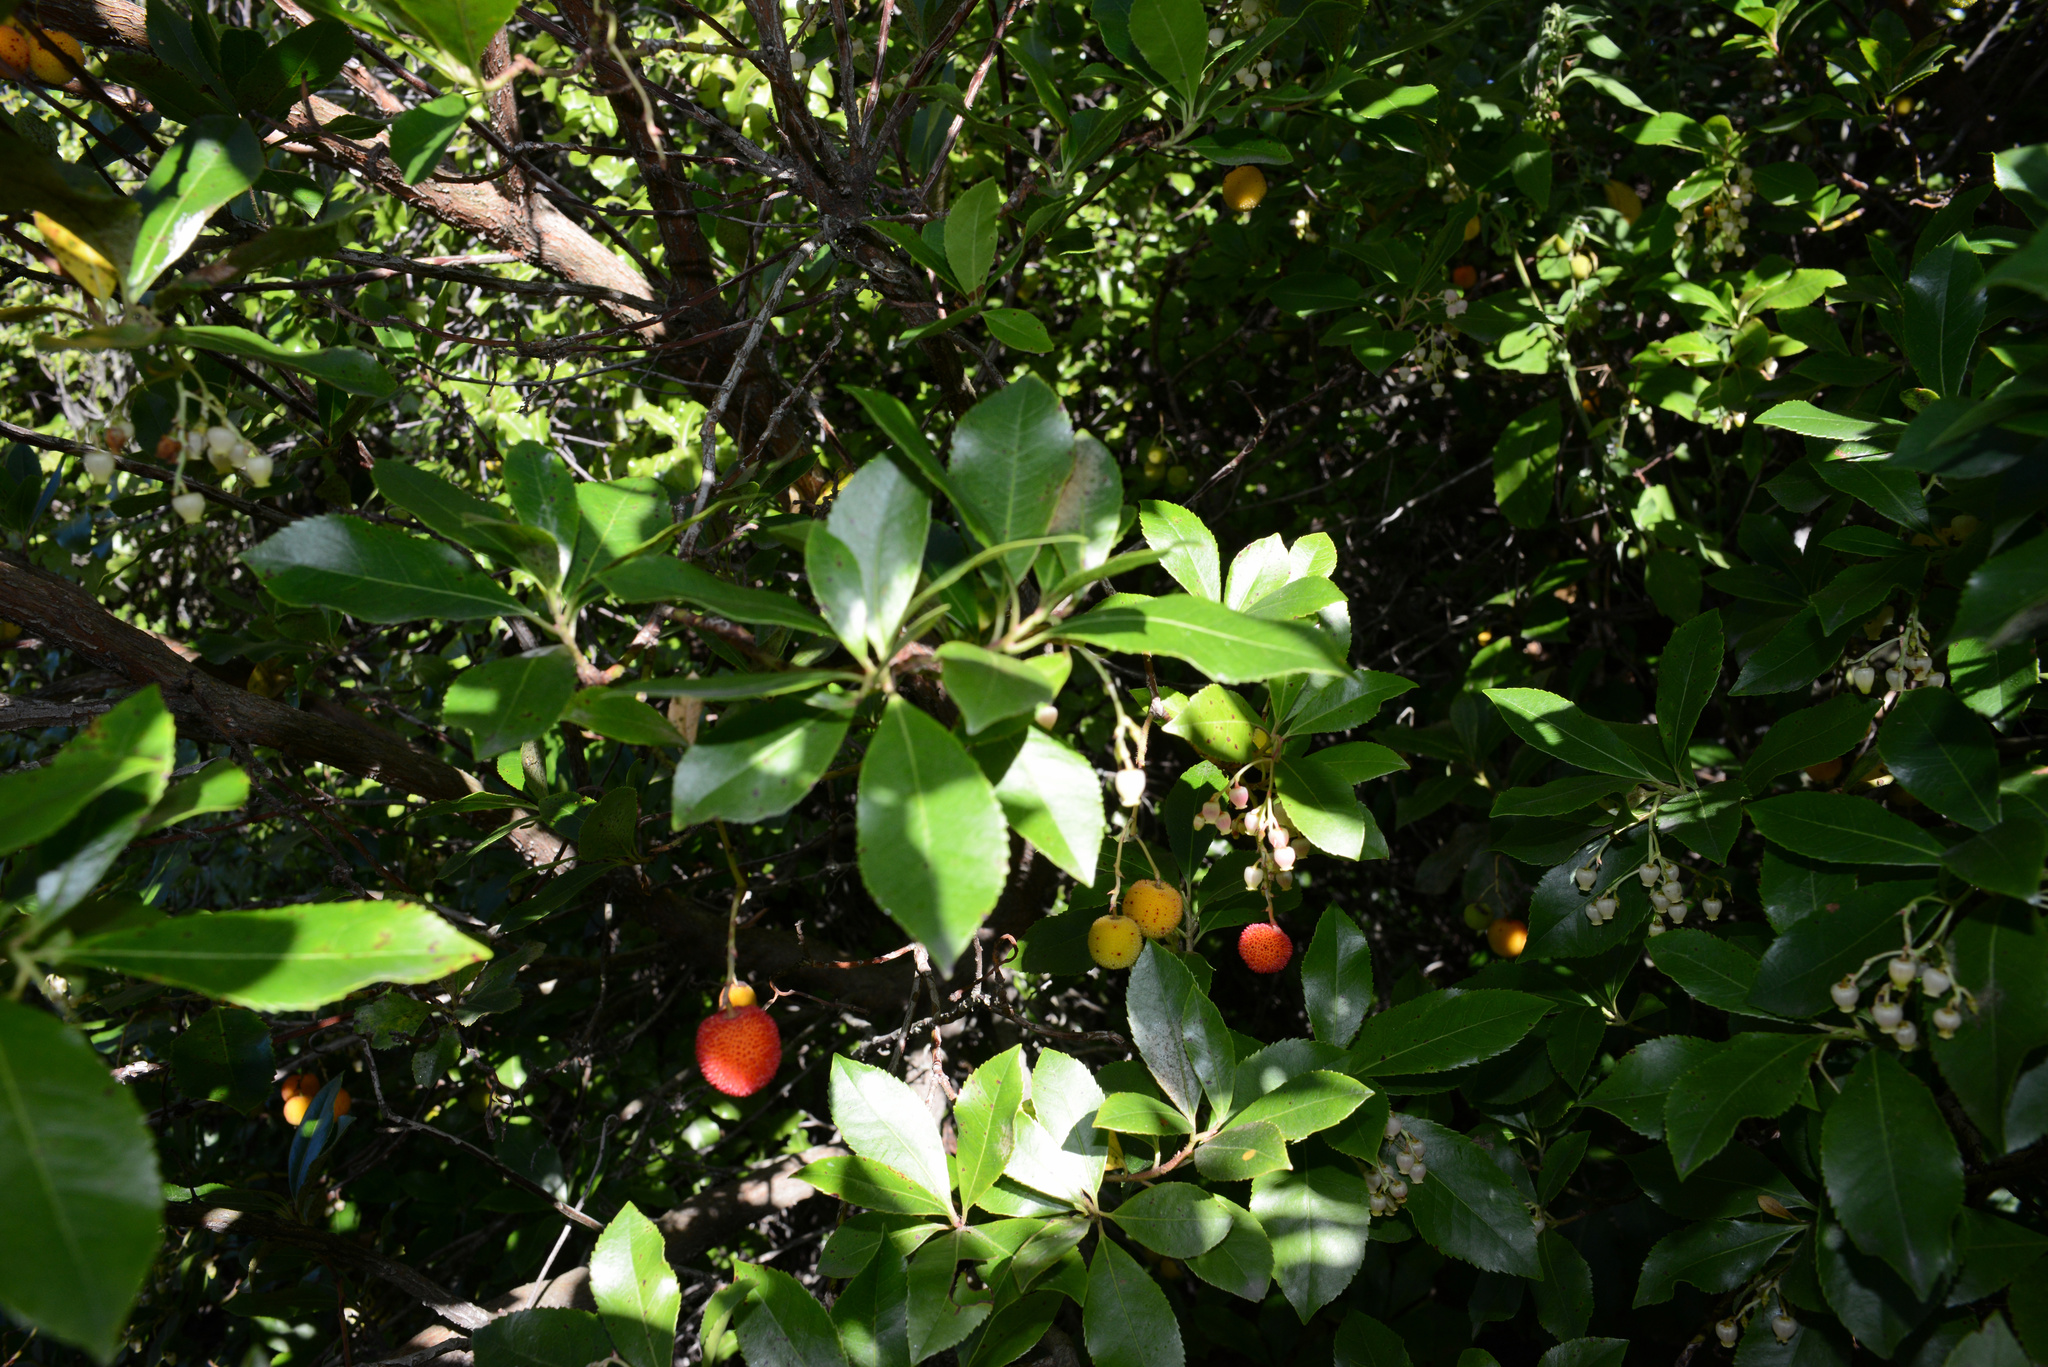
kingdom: Plantae
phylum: Tracheophyta
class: Magnoliopsida
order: Ericales
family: Ericaceae
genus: Arbutus
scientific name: Arbutus unedo
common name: Strawberry-tree
